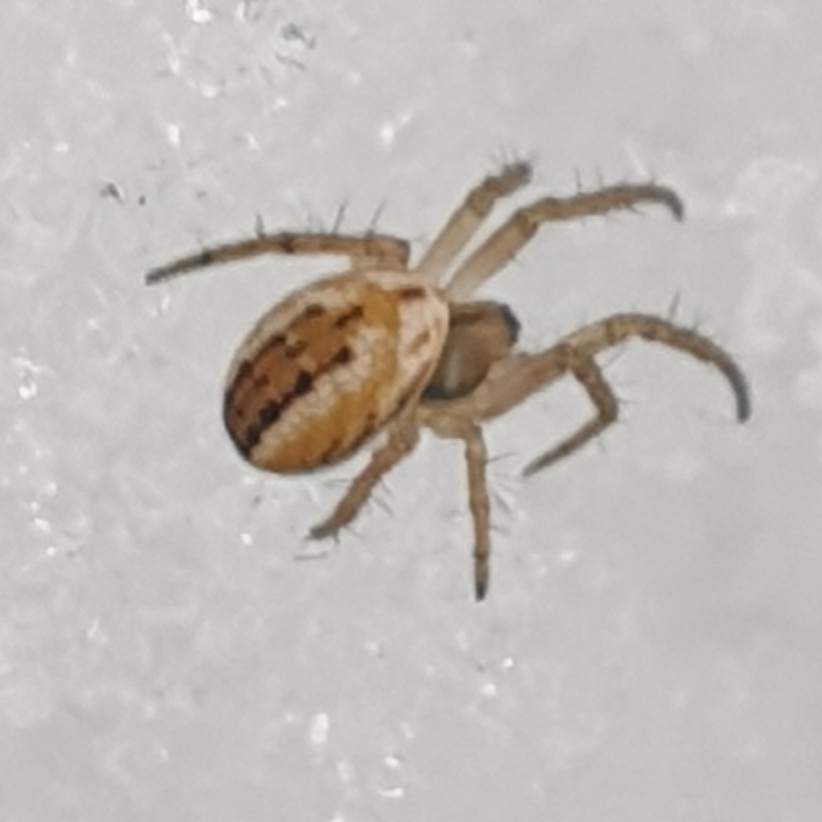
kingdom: Animalia
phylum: Arthropoda
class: Arachnida
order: Araneae
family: Araneidae
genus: Mangora
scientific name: Mangora acalypha
